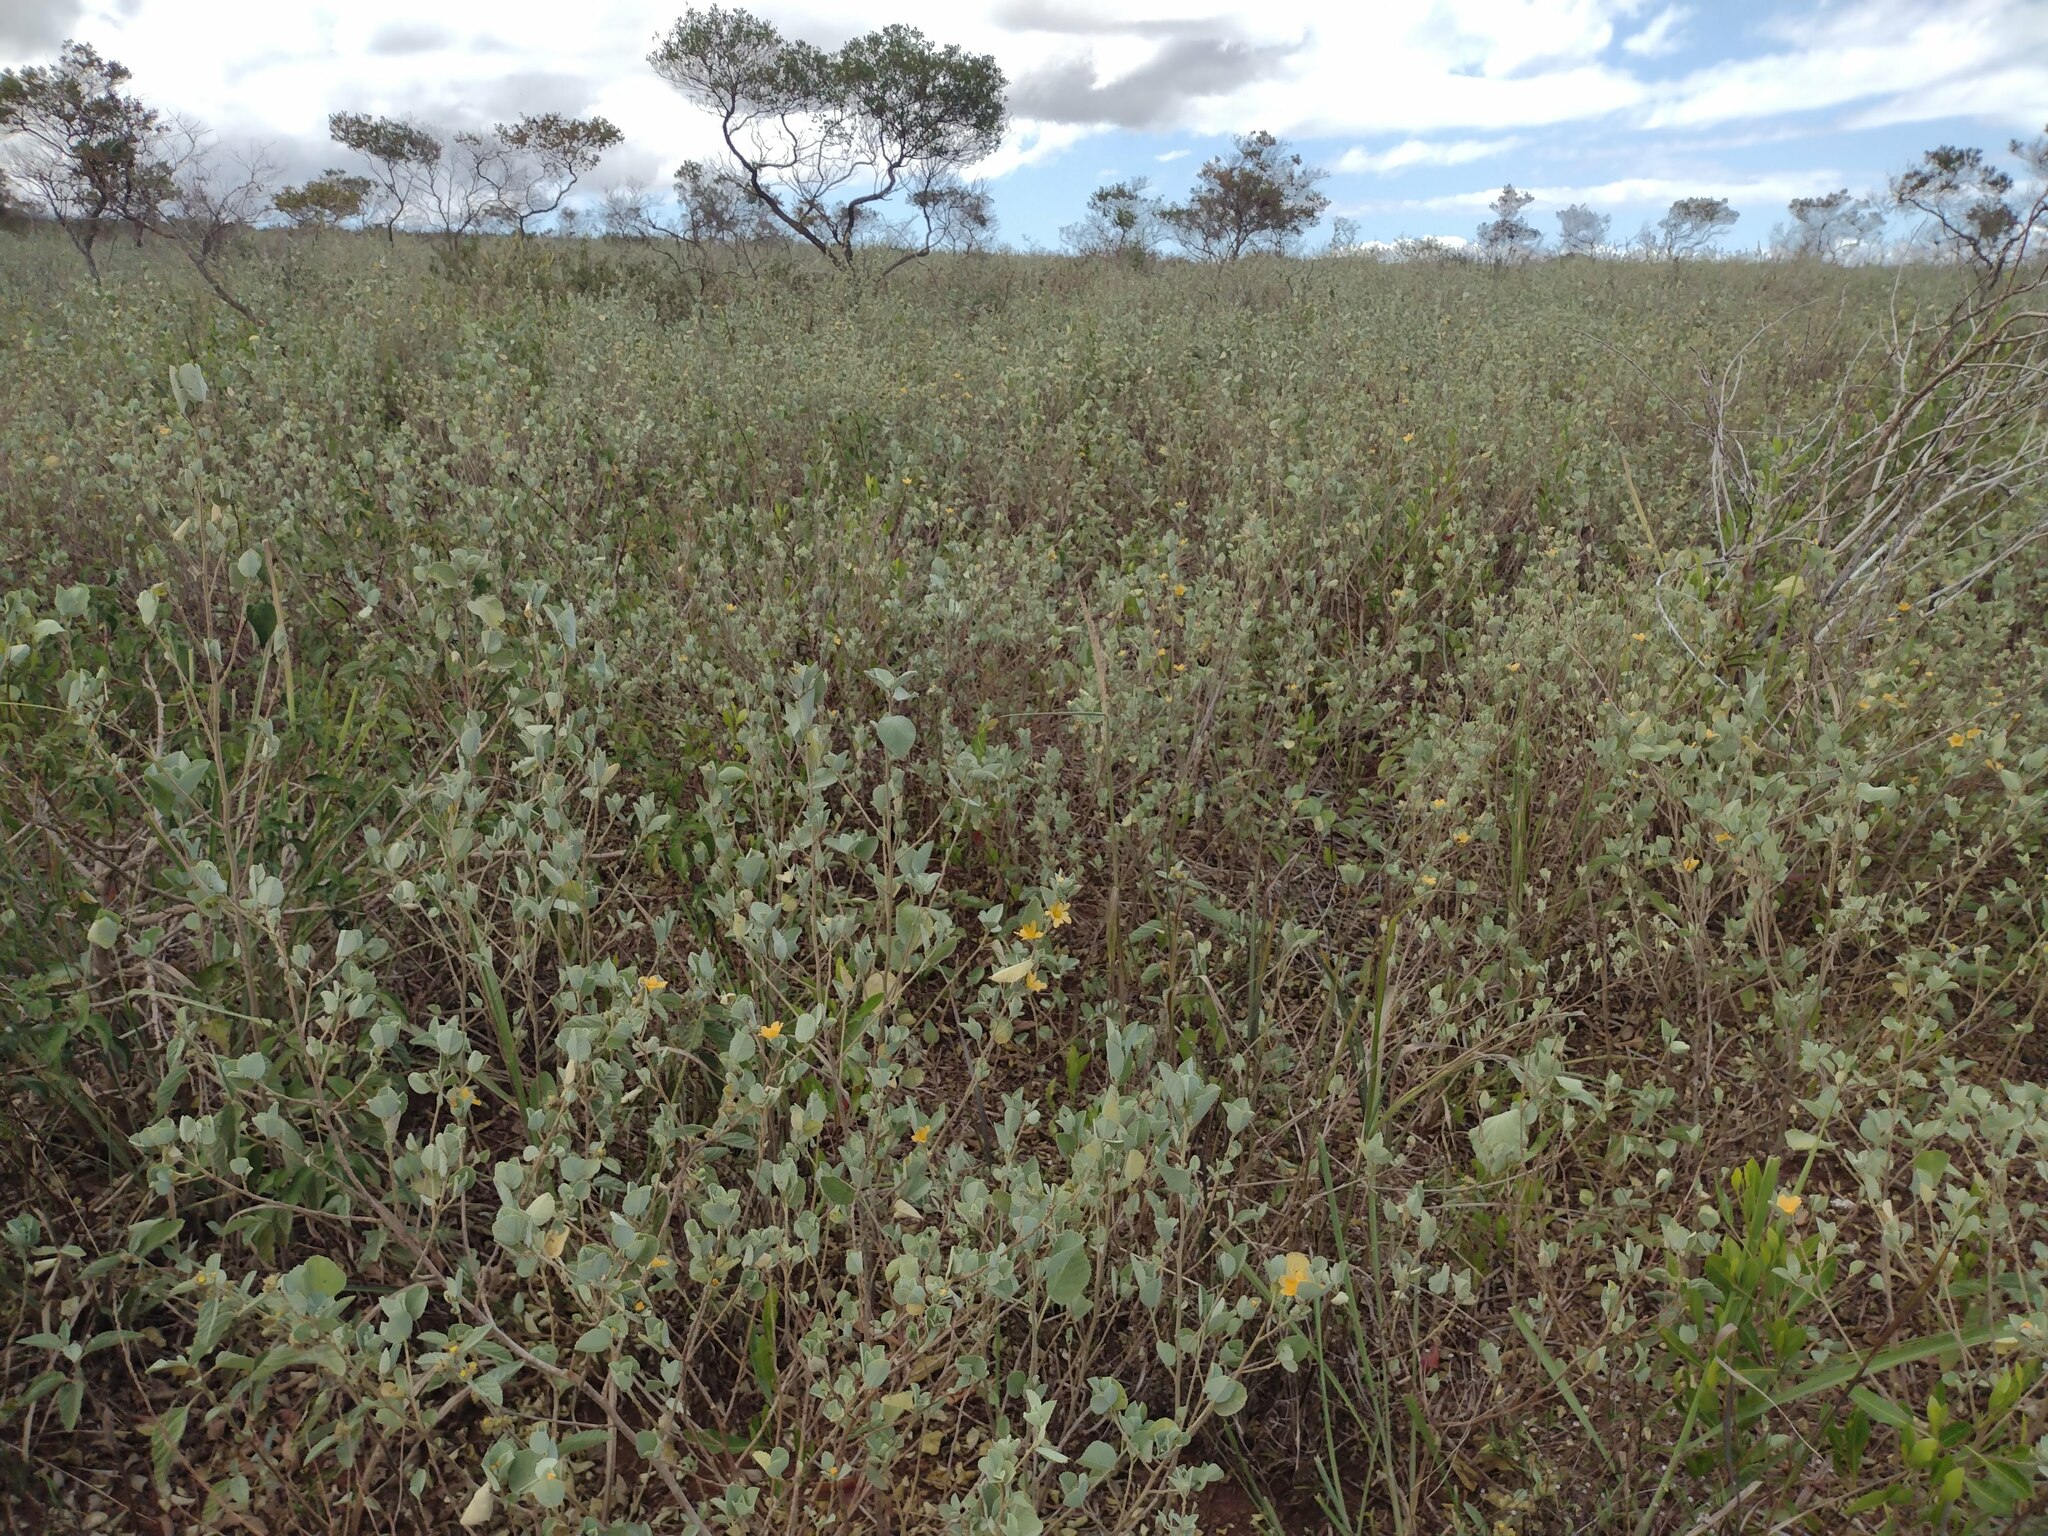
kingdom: Plantae
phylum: Tracheophyta
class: Magnoliopsida
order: Malvales
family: Malvaceae
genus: Sida
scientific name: Sida fallax
